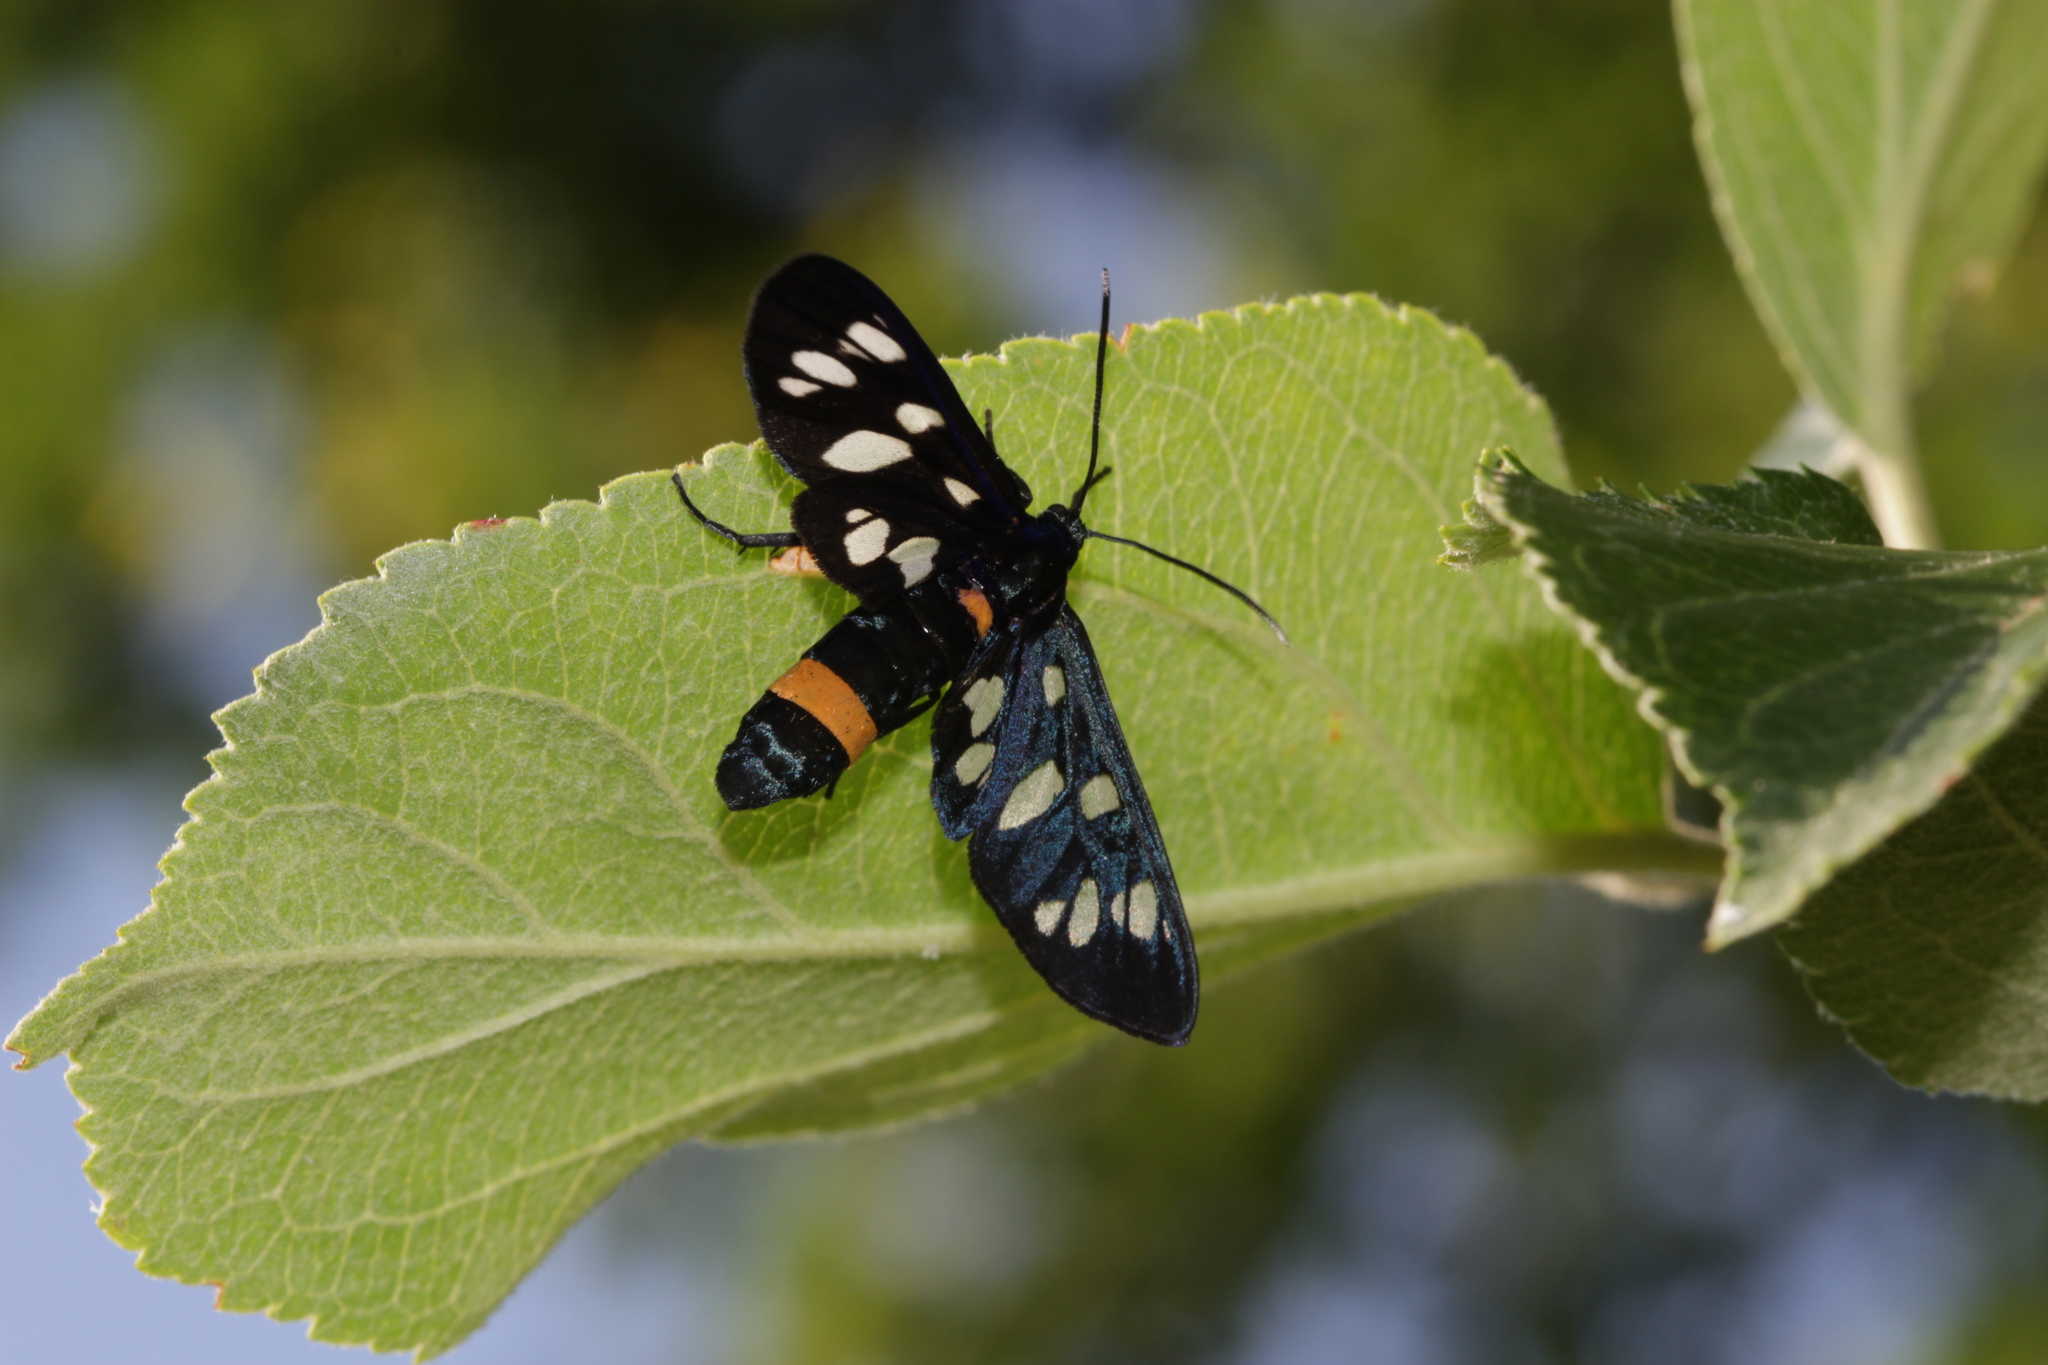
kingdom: Animalia
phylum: Arthropoda
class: Insecta
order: Lepidoptera
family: Erebidae
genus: Amata
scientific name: Amata phegea
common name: Nine-spotted
